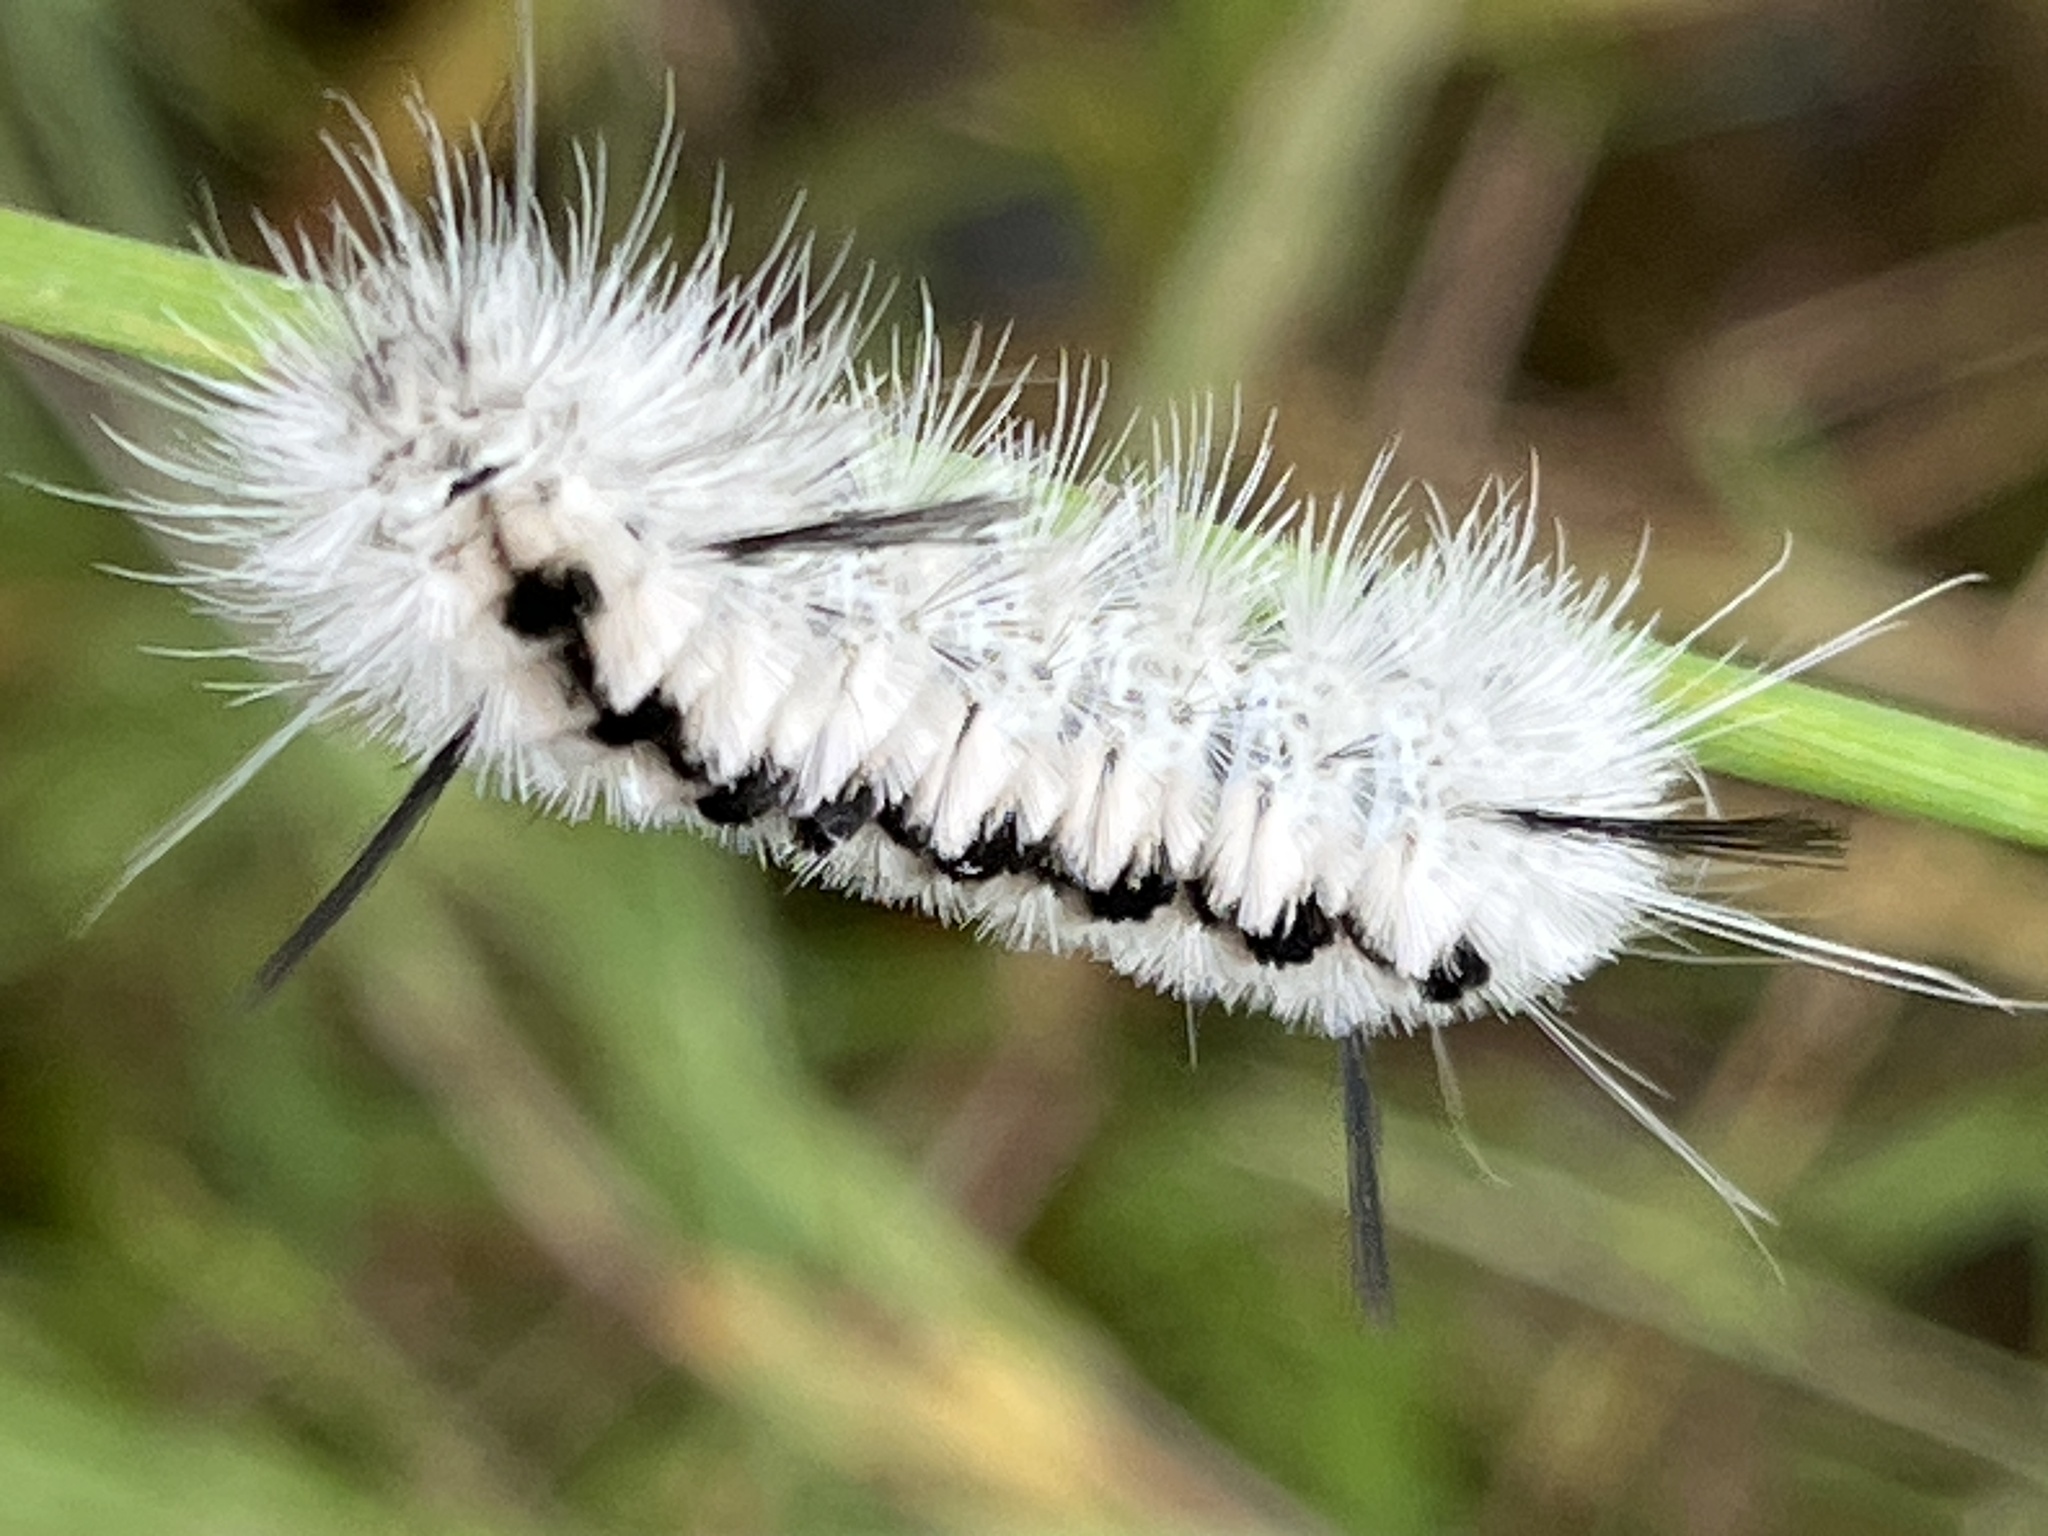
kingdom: Animalia
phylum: Arthropoda
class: Insecta
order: Lepidoptera
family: Erebidae
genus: Lophocampa
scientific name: Lophocampa caryae
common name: Hickory tussock moth
